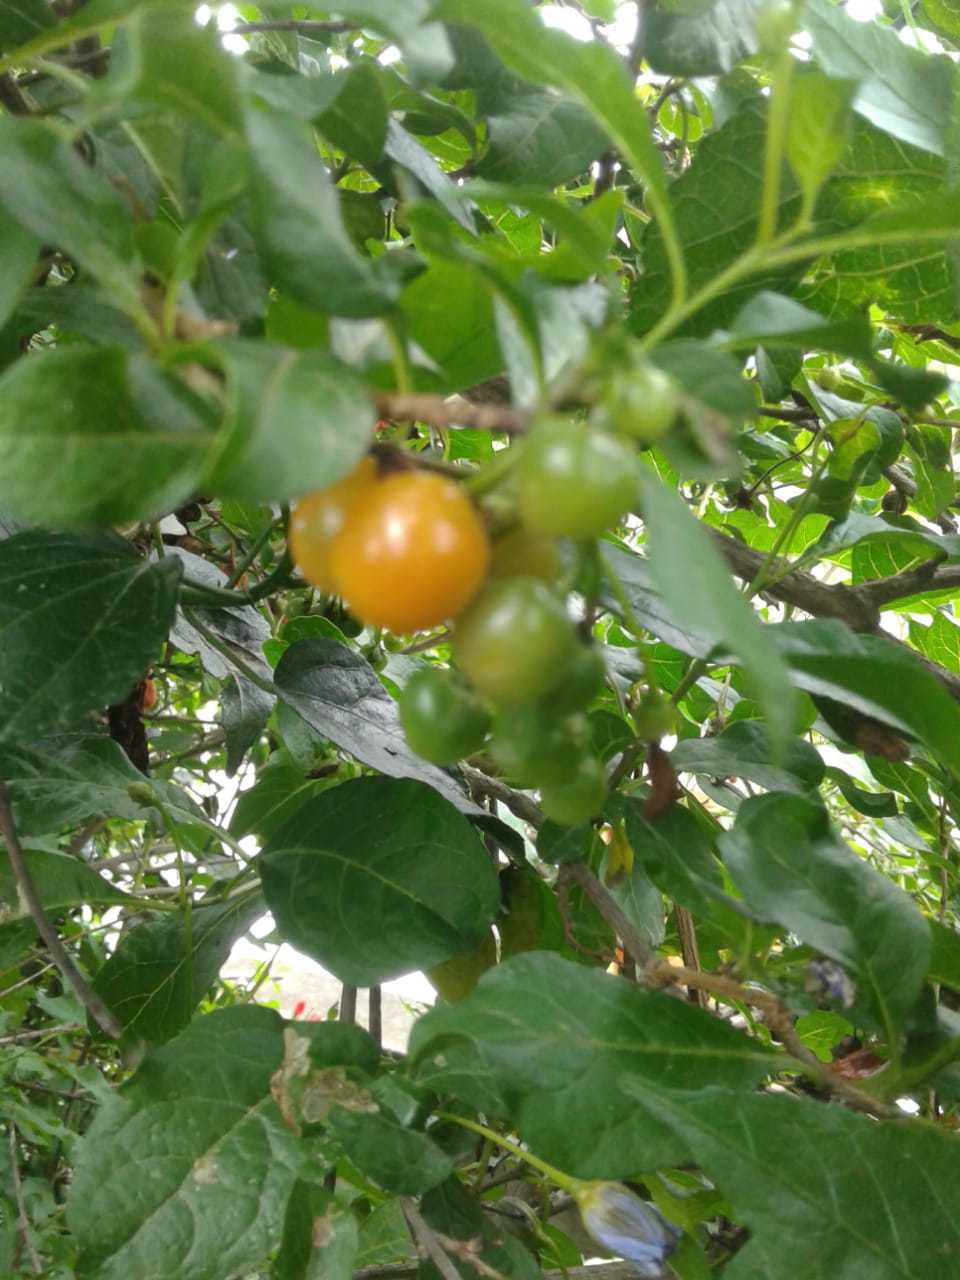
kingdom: Plantae
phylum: Tracheophyta
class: Magnoliopsida
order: Solanales
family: Solanaceae
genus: Lycianthes
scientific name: Lycianthes lycioides
